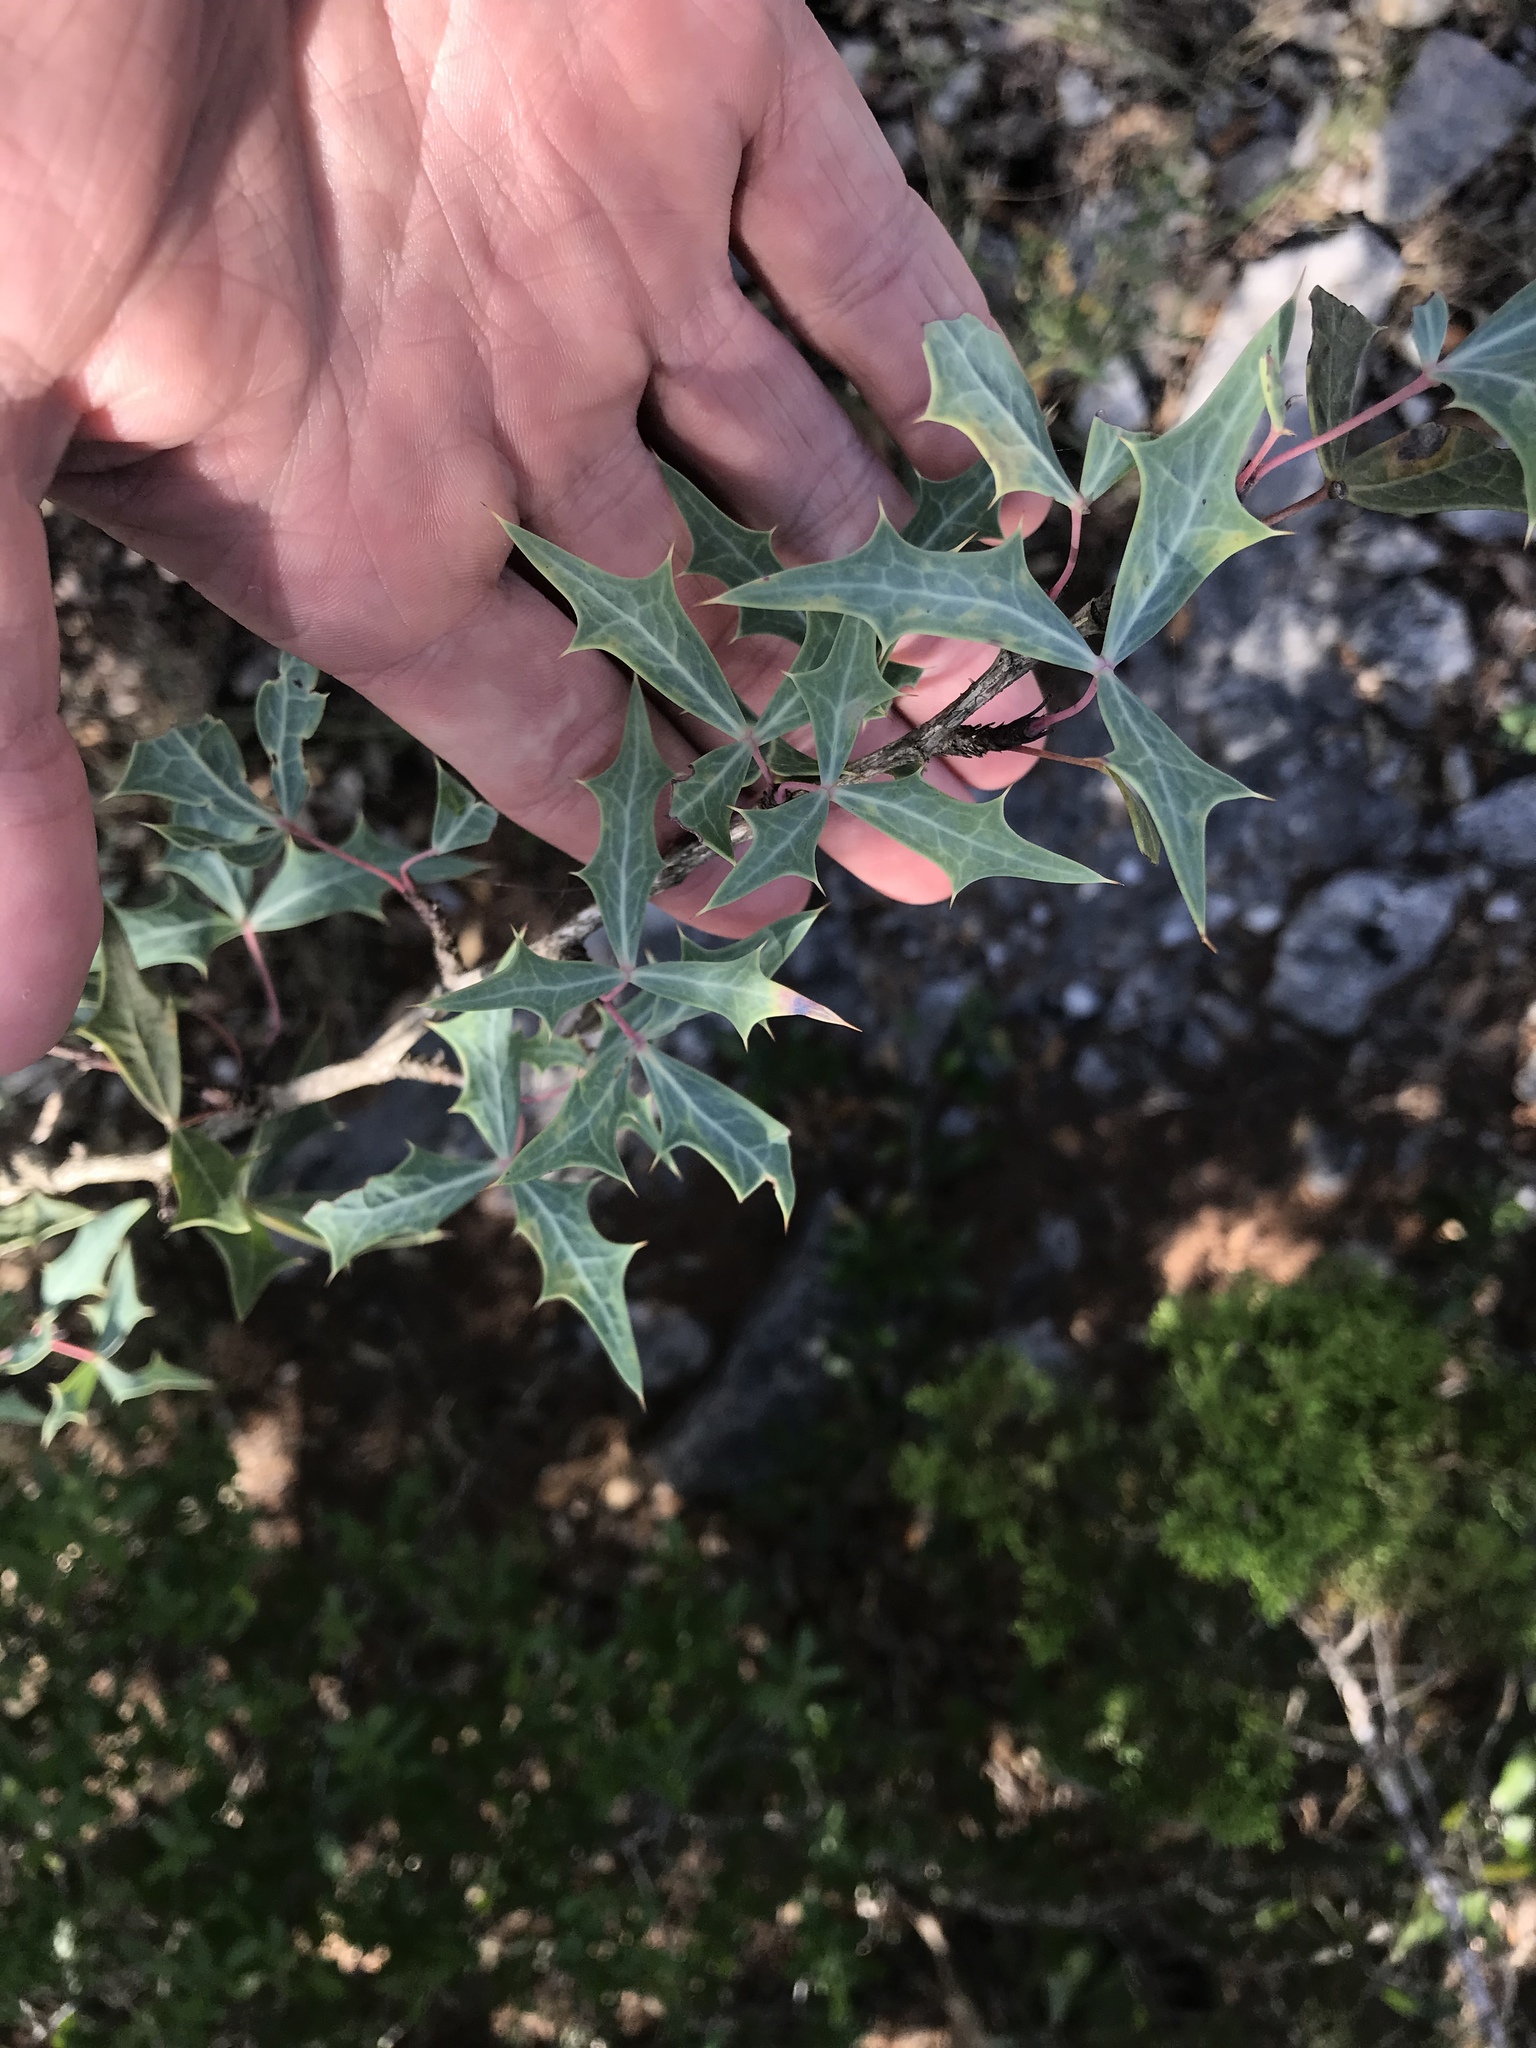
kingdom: Plantae
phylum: Tracheophyta
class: Magnoliopsida
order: Ranunculales
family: Berberidaceae
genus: Alloberberis
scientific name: Alloberberis trifoliolata
